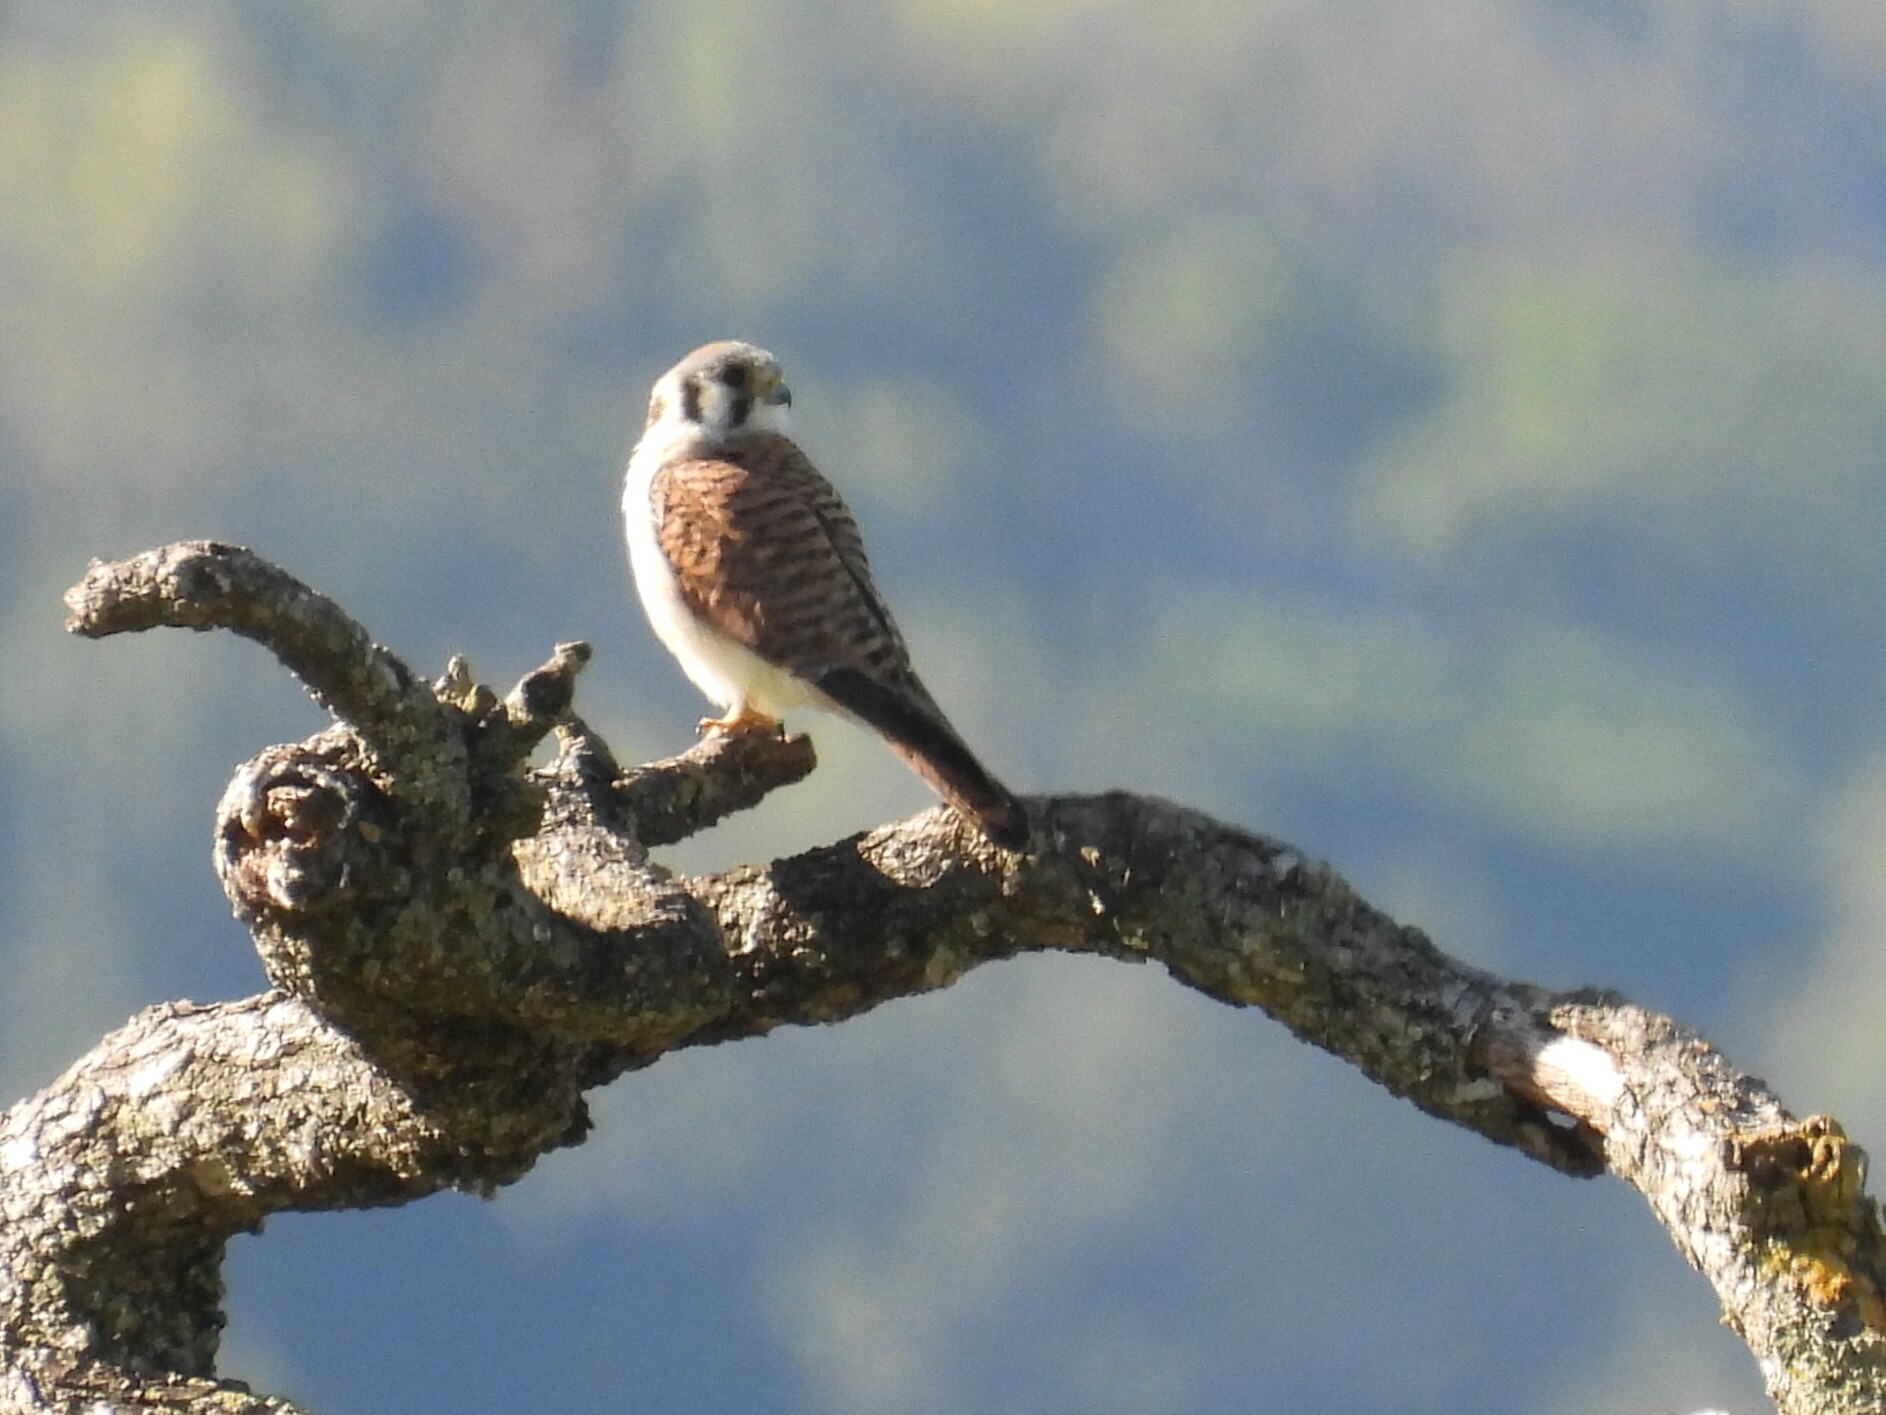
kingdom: Animalia
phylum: Chordata
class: Aves
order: Falconiformes
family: Falconidae
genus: Falco
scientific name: Falco sparverius
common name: American kestrel
